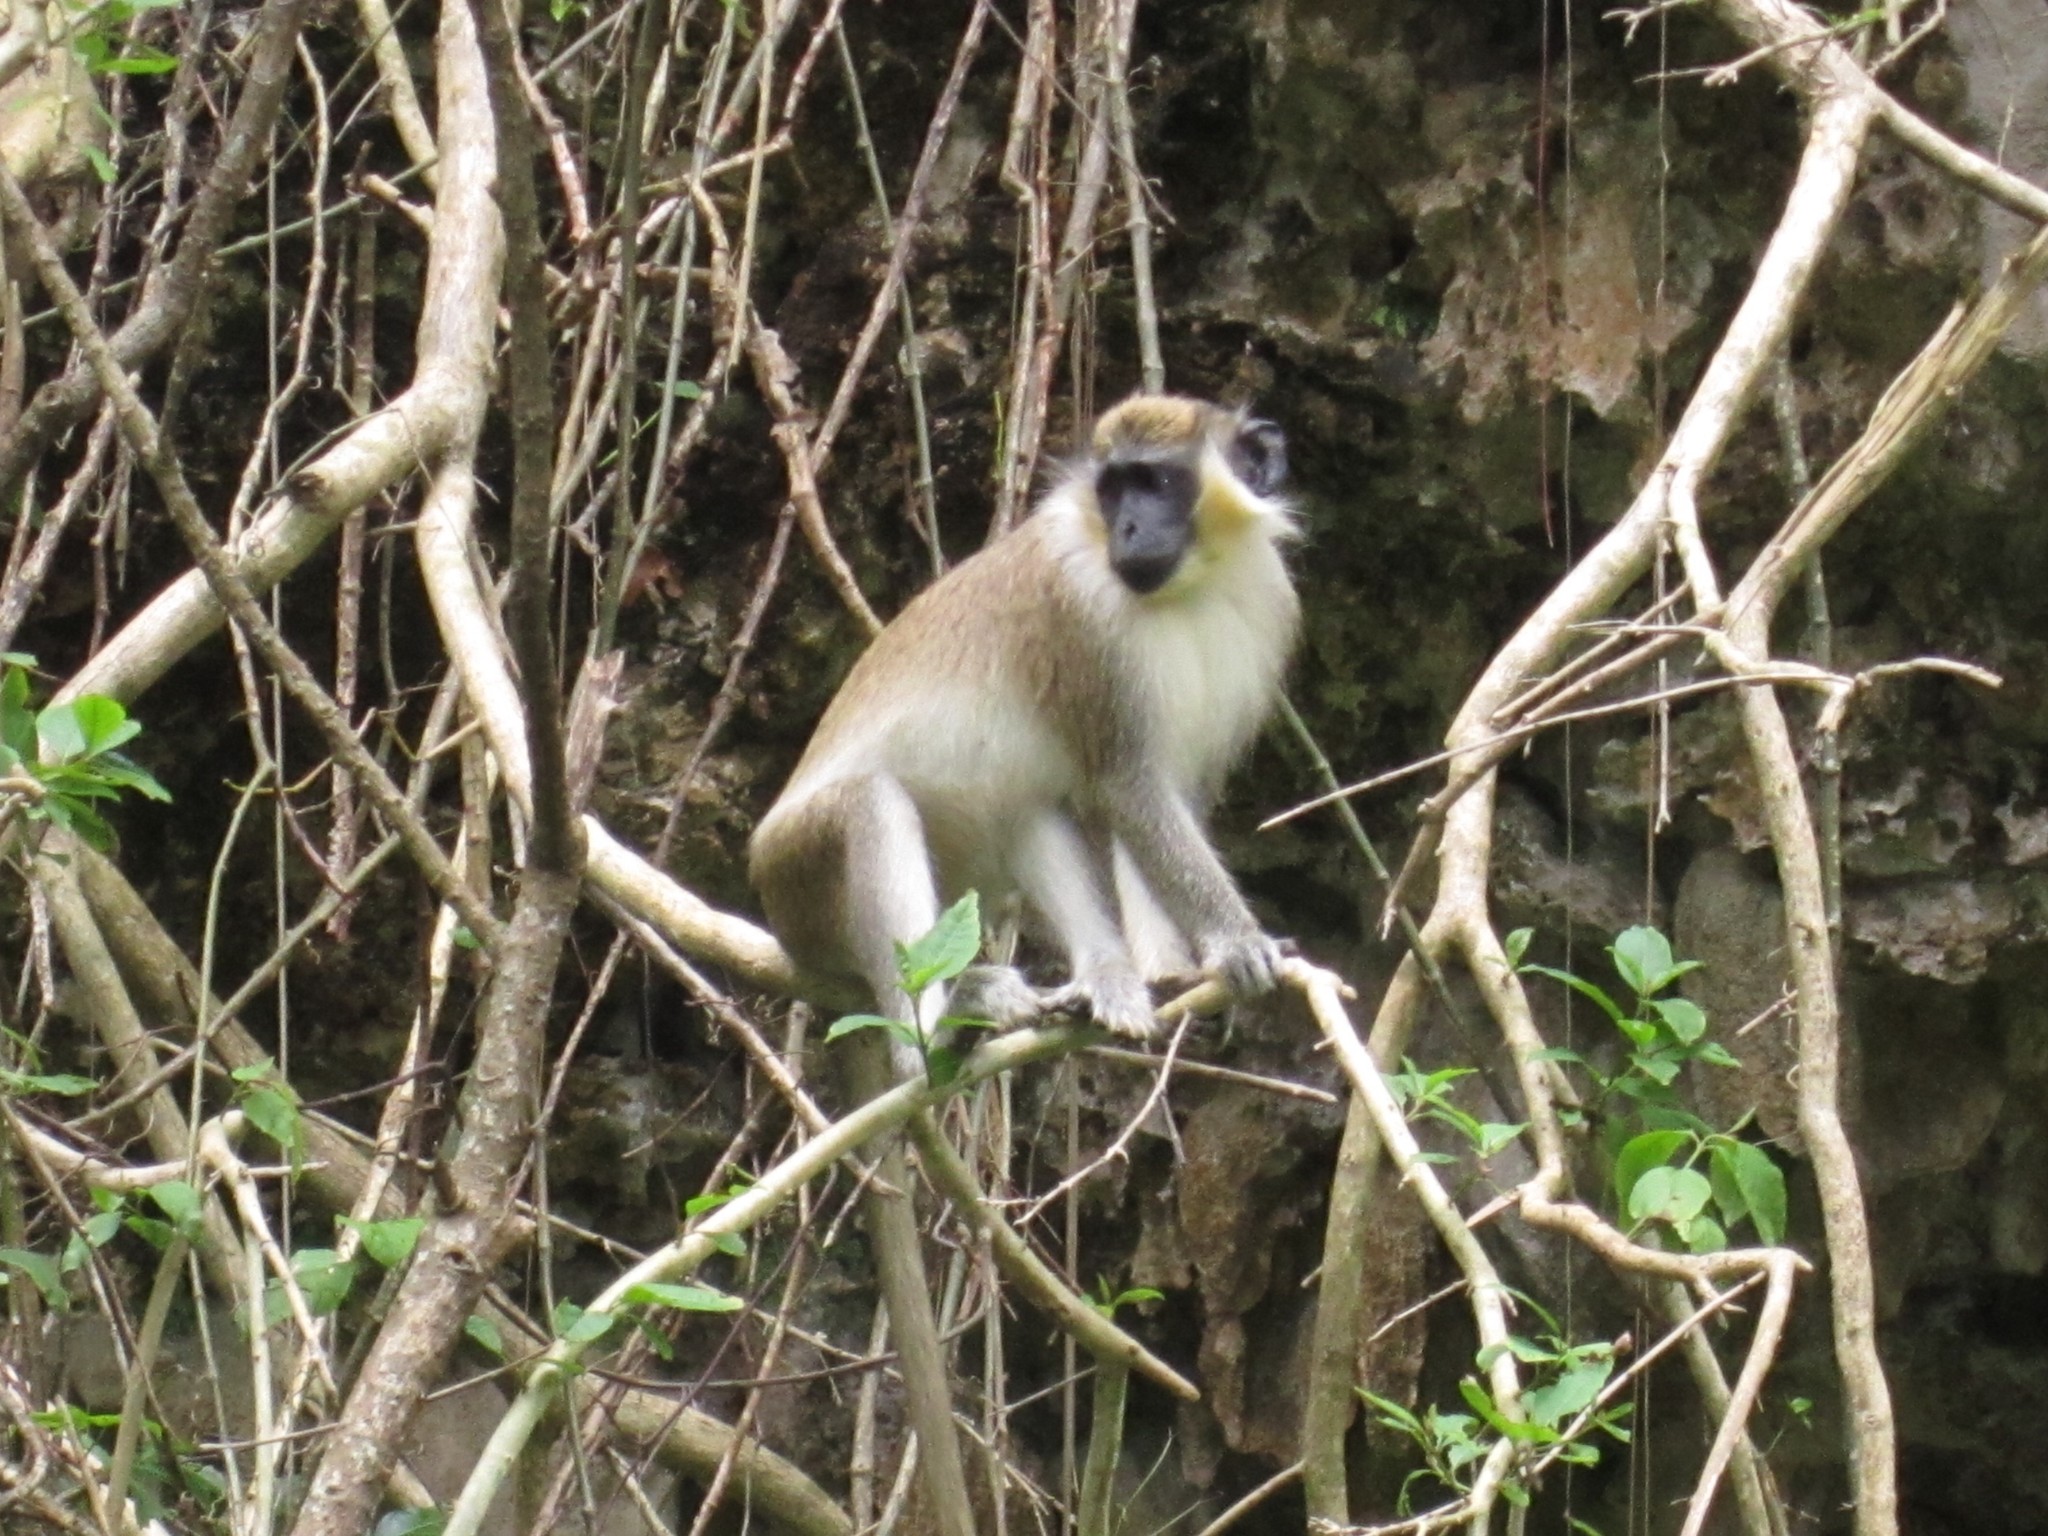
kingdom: Animalia
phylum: Chordata
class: Mammalia
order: Primates
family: Cercopithecidae
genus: Chlorocebus
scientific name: Chlorocebus sabaeus
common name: Green monkey
